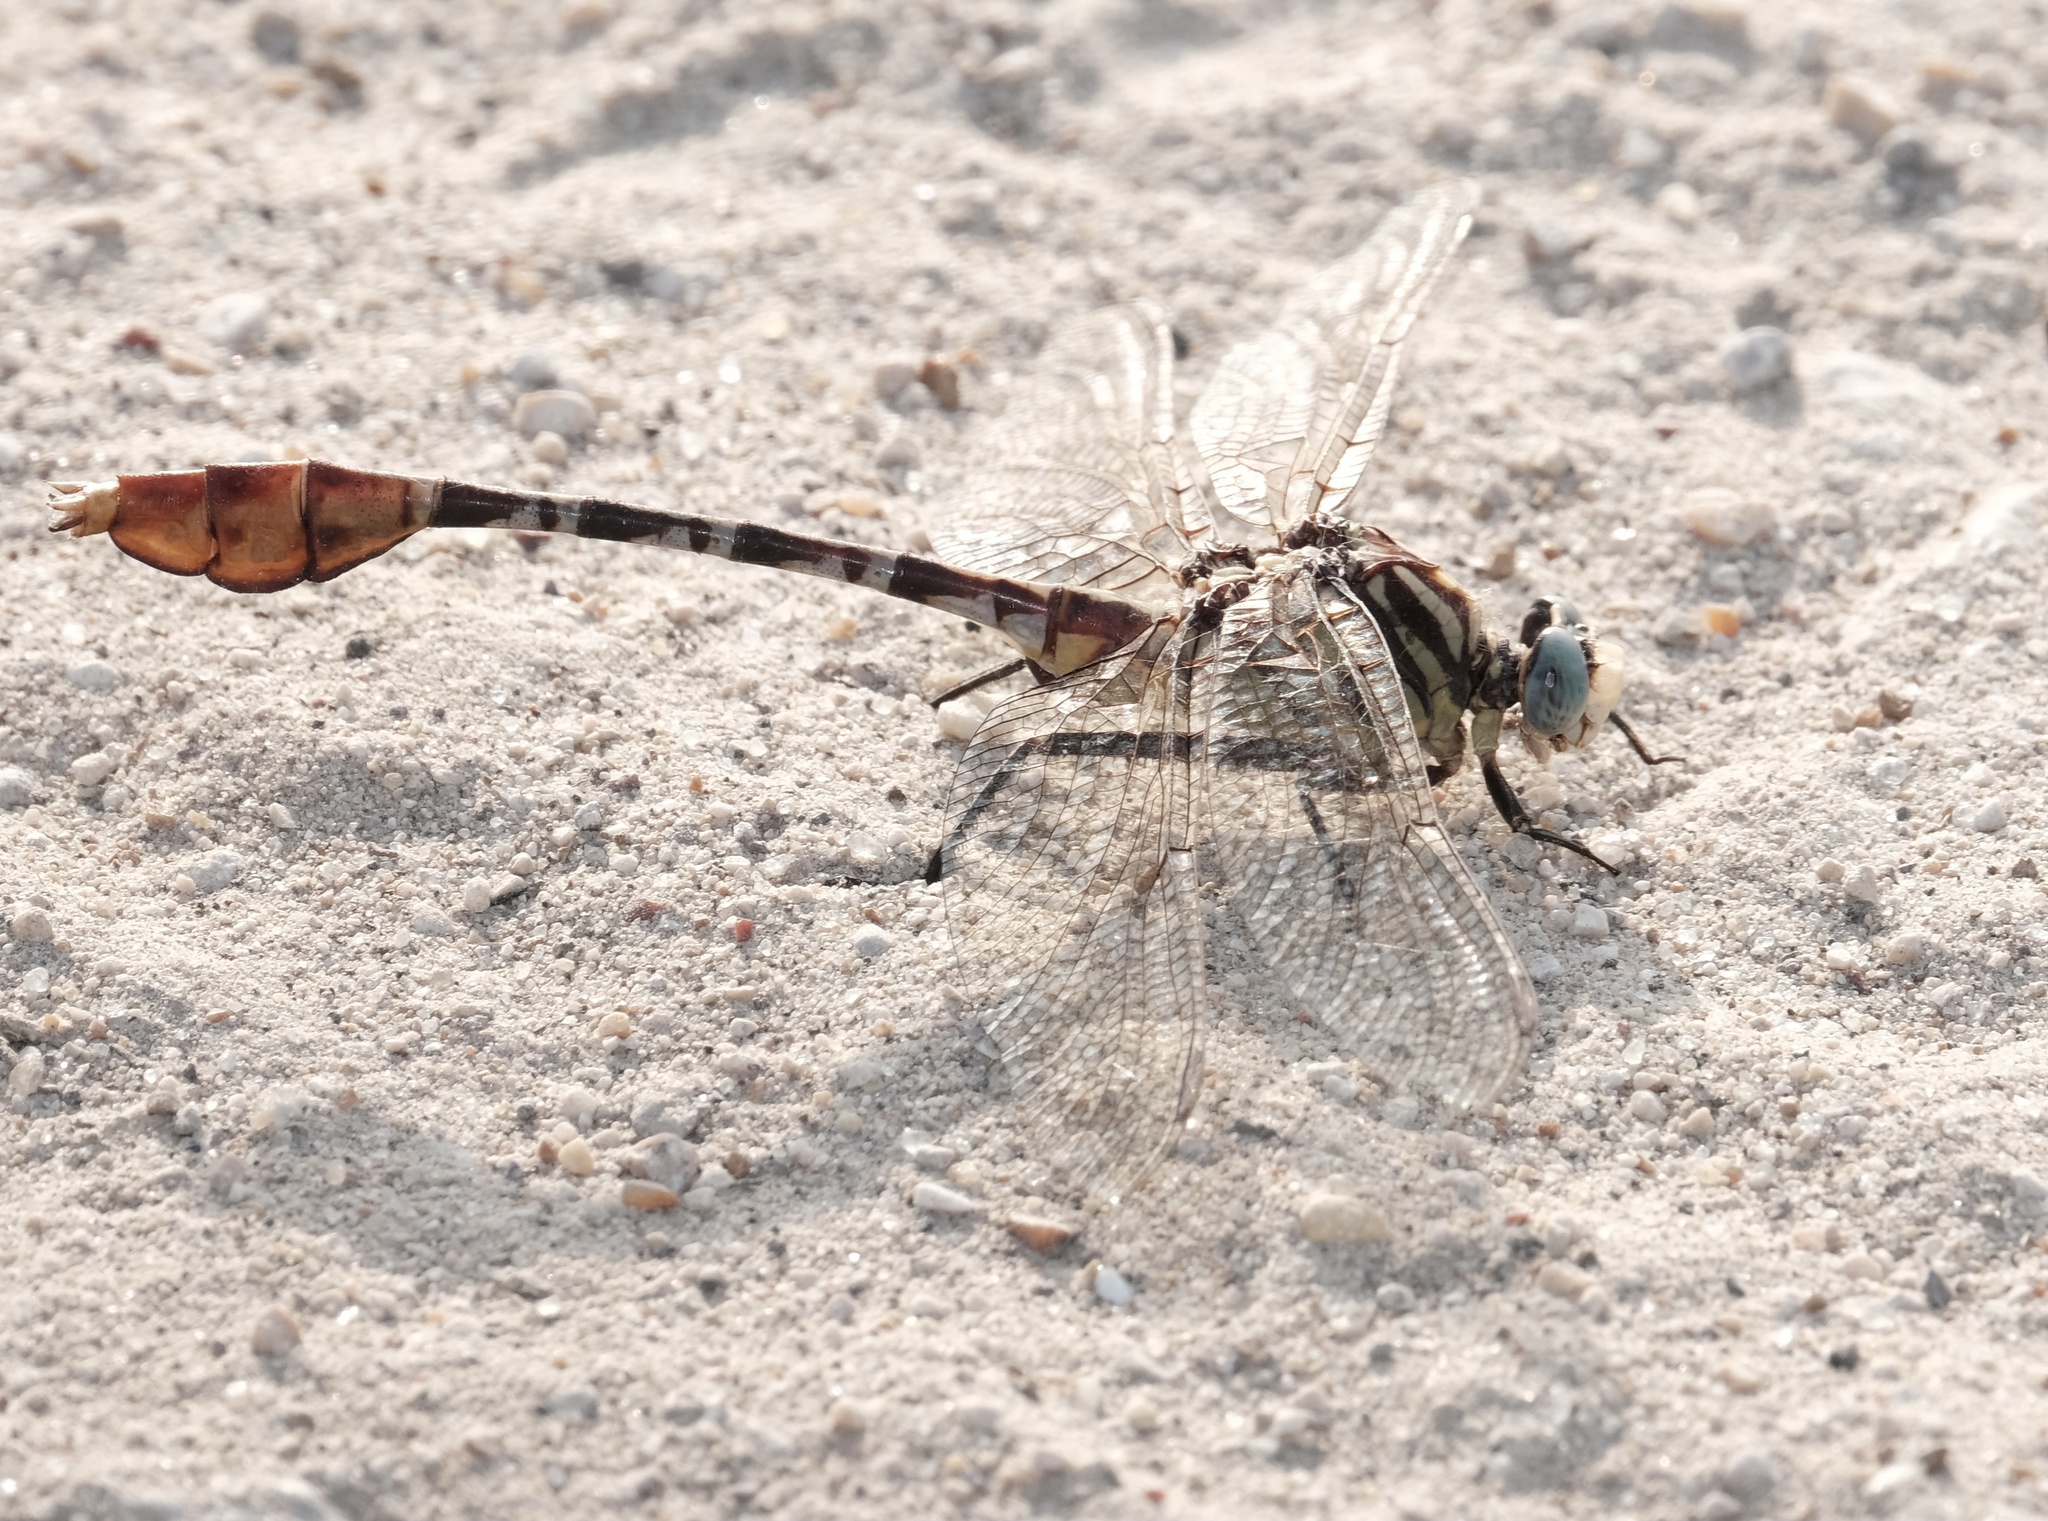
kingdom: Animalia
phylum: Arthropoda
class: Insecta
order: Odonata
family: Gomphidae
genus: Dromogomphus
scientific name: Dromogomphus spoliatus
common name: Flag-tailed spinyleg
